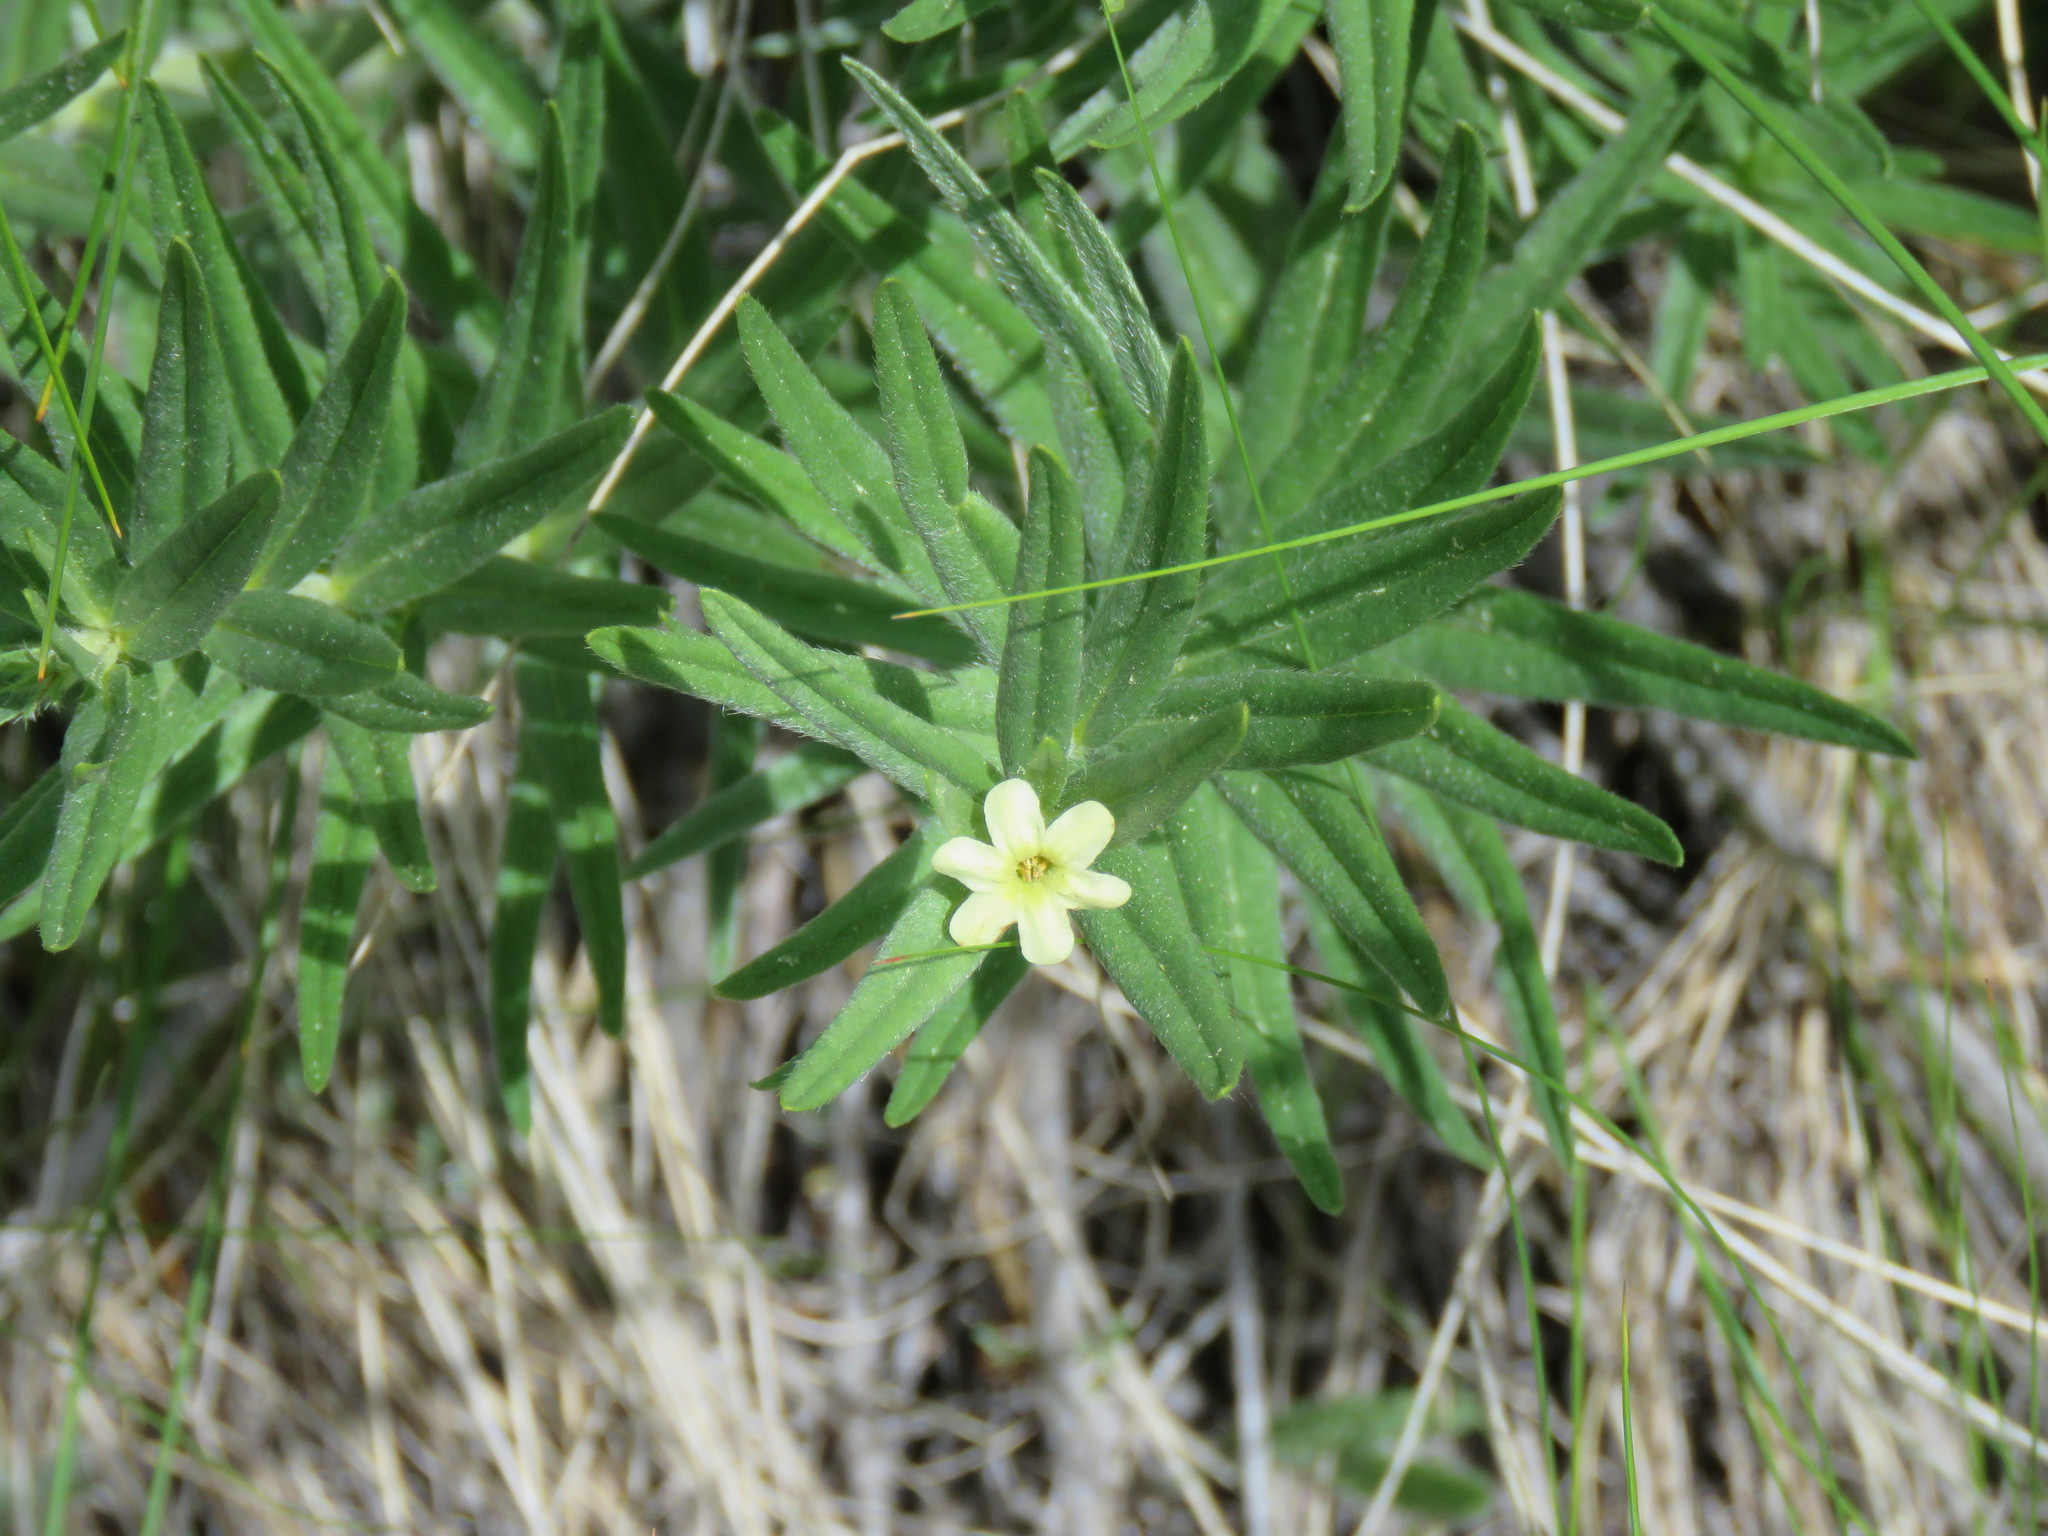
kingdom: Plantae
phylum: Tracheophyta
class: Magnoliopsida
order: Boraginales
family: Boraginaceae
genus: Lithospermum
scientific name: Lithospermum ruderale
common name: Western gromwell
